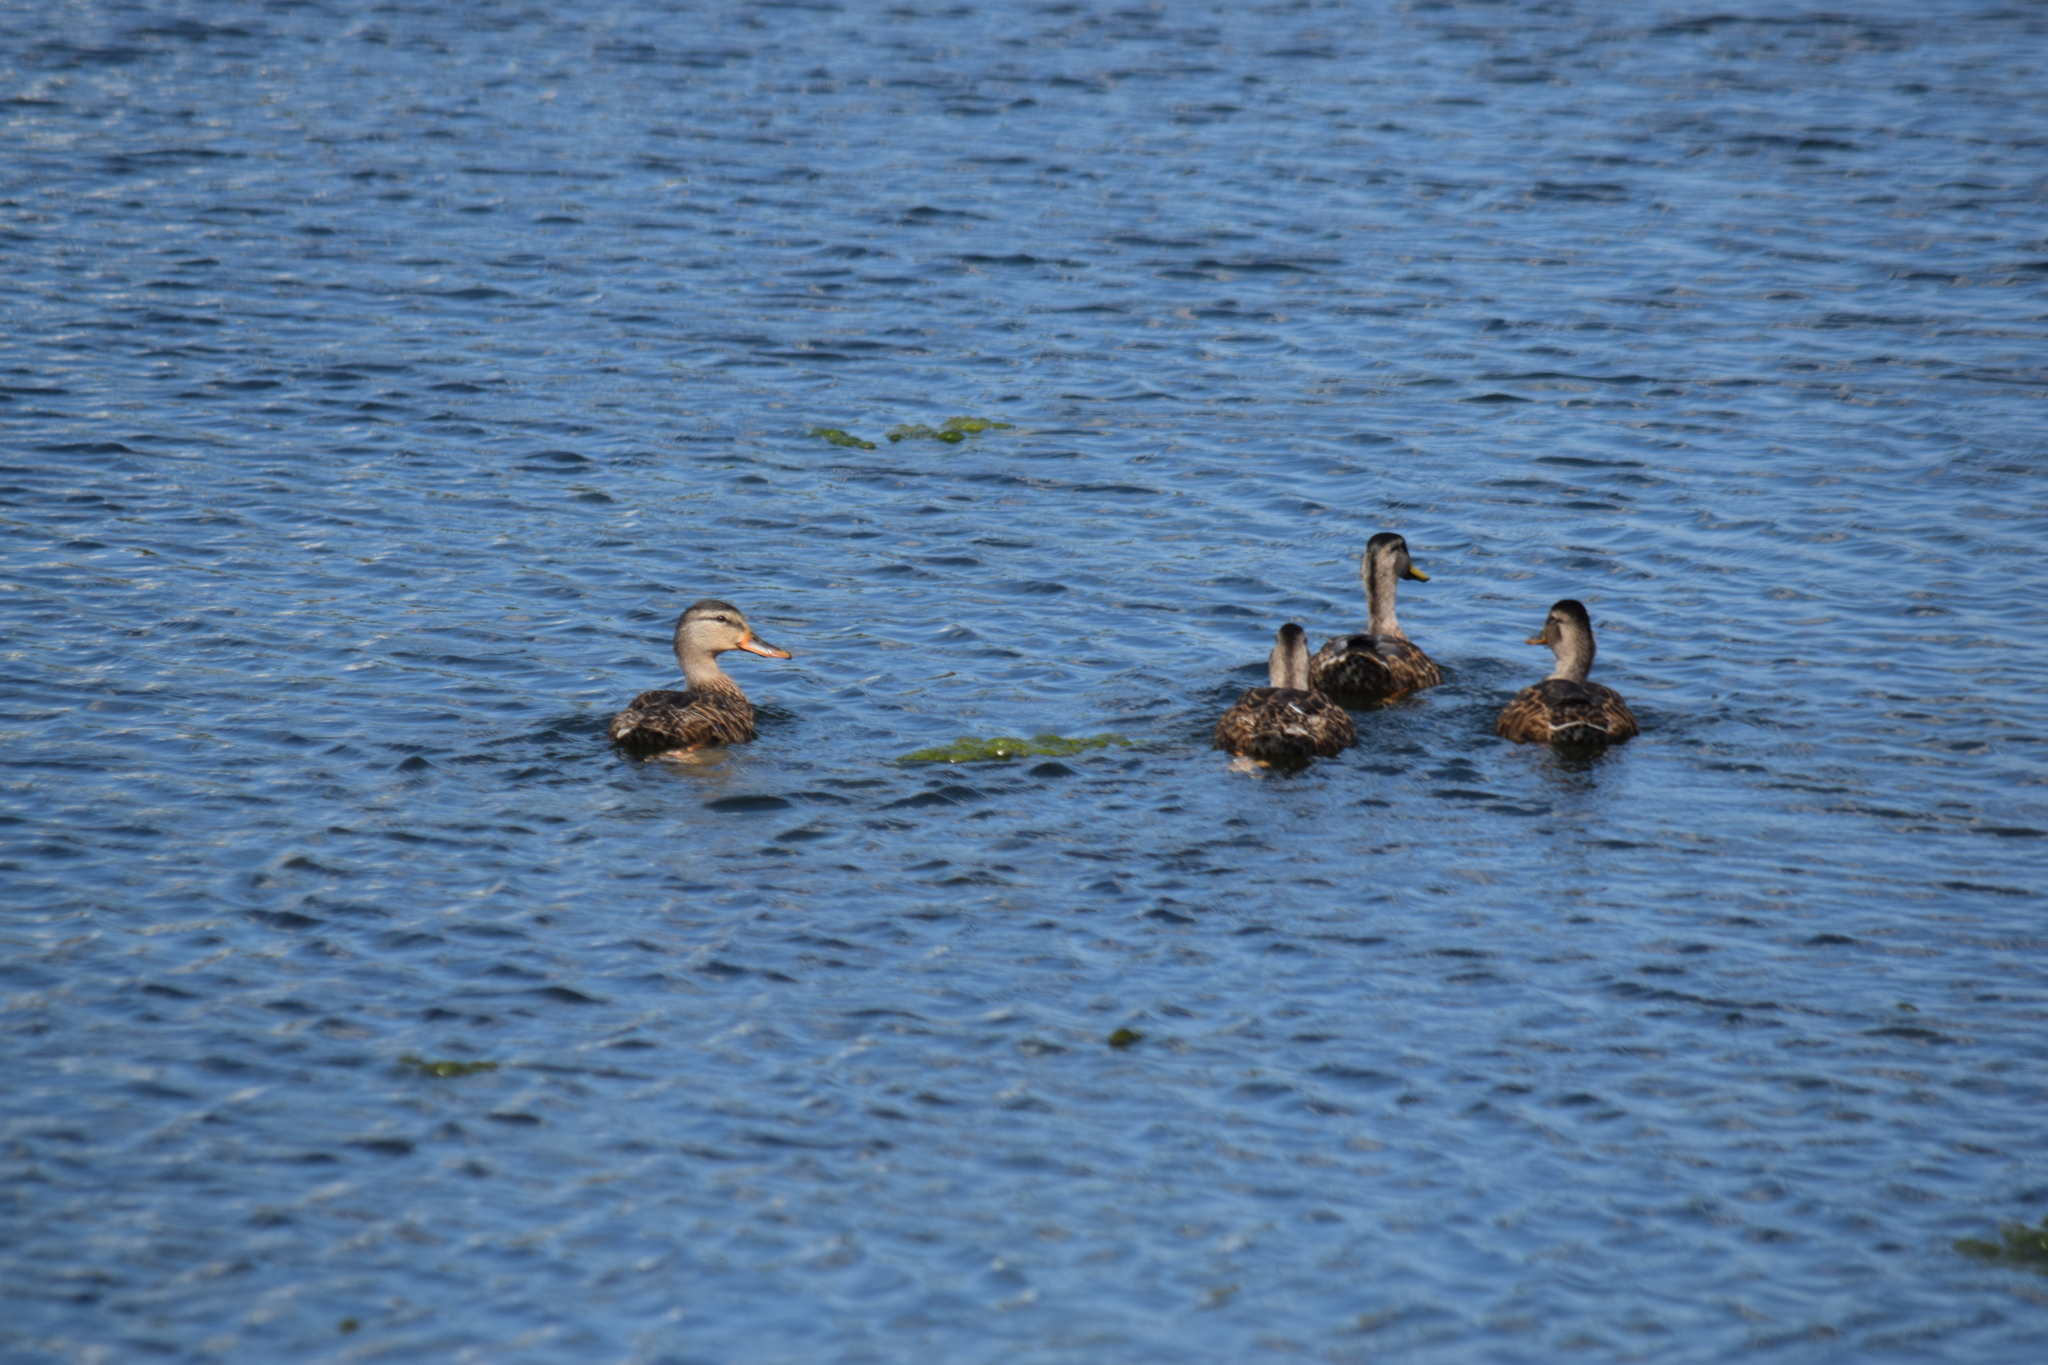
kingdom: Animalia
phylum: Chordata
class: Aves
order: Anseriformes
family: Anatidae
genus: Anas
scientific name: Anas platyrhynchos
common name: Mallard
